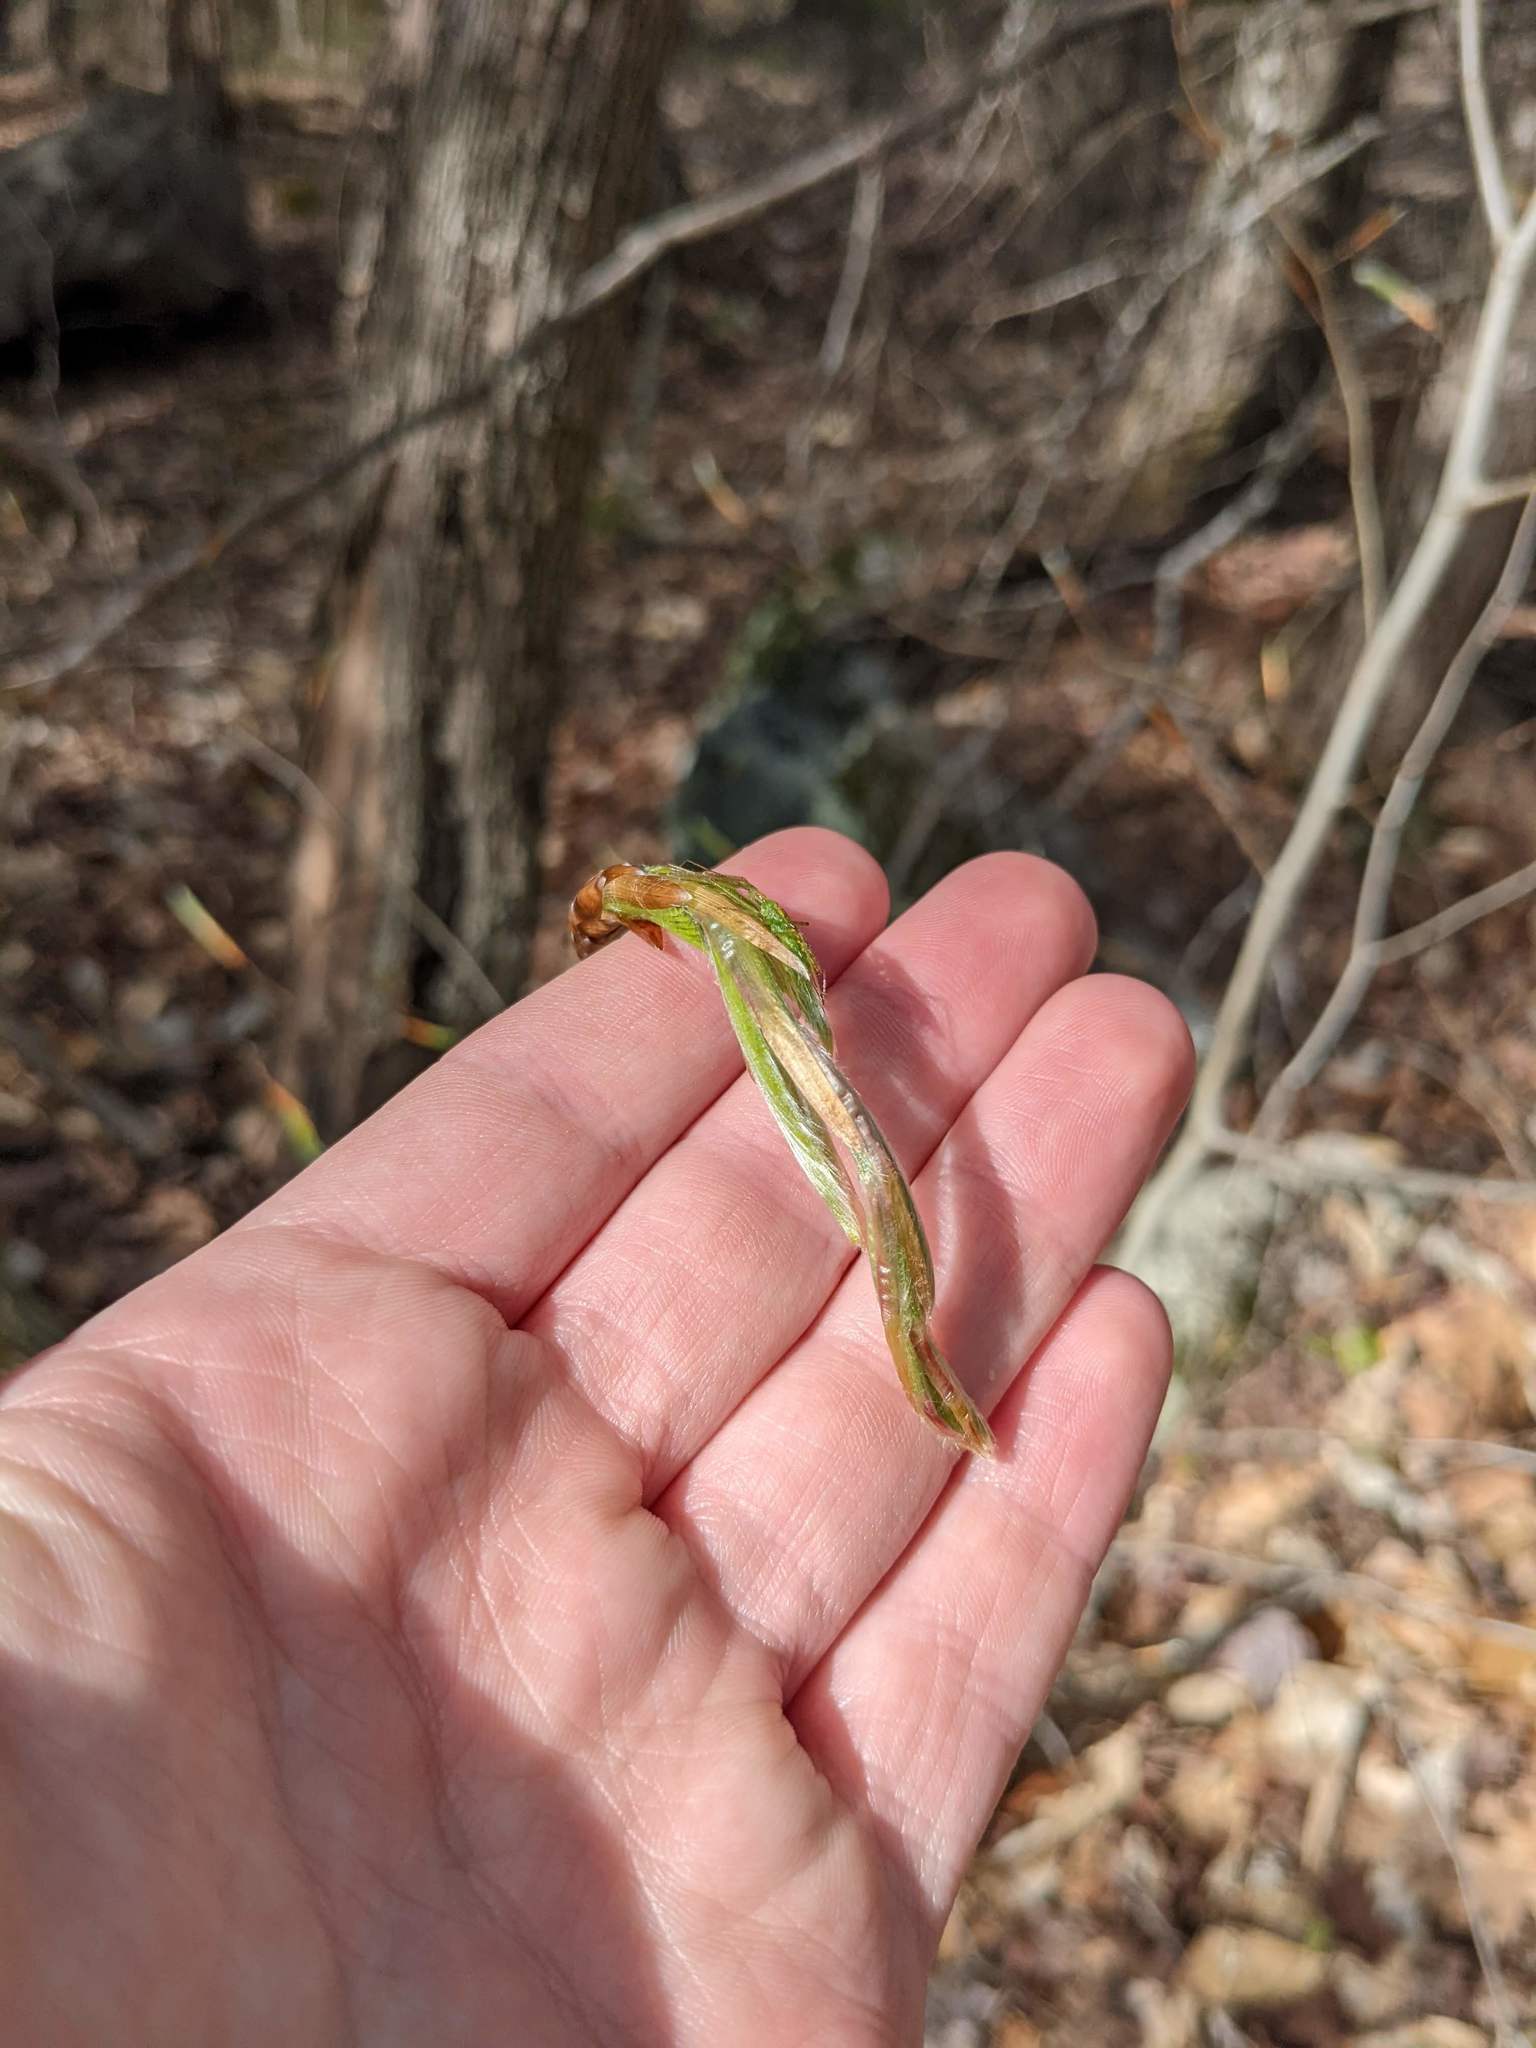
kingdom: Plantae
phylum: Tracheophyta
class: Magnoliopsida
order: Fagales
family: Fagaceae
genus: Fagus
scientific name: Fagus grandifolia
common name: American beech
